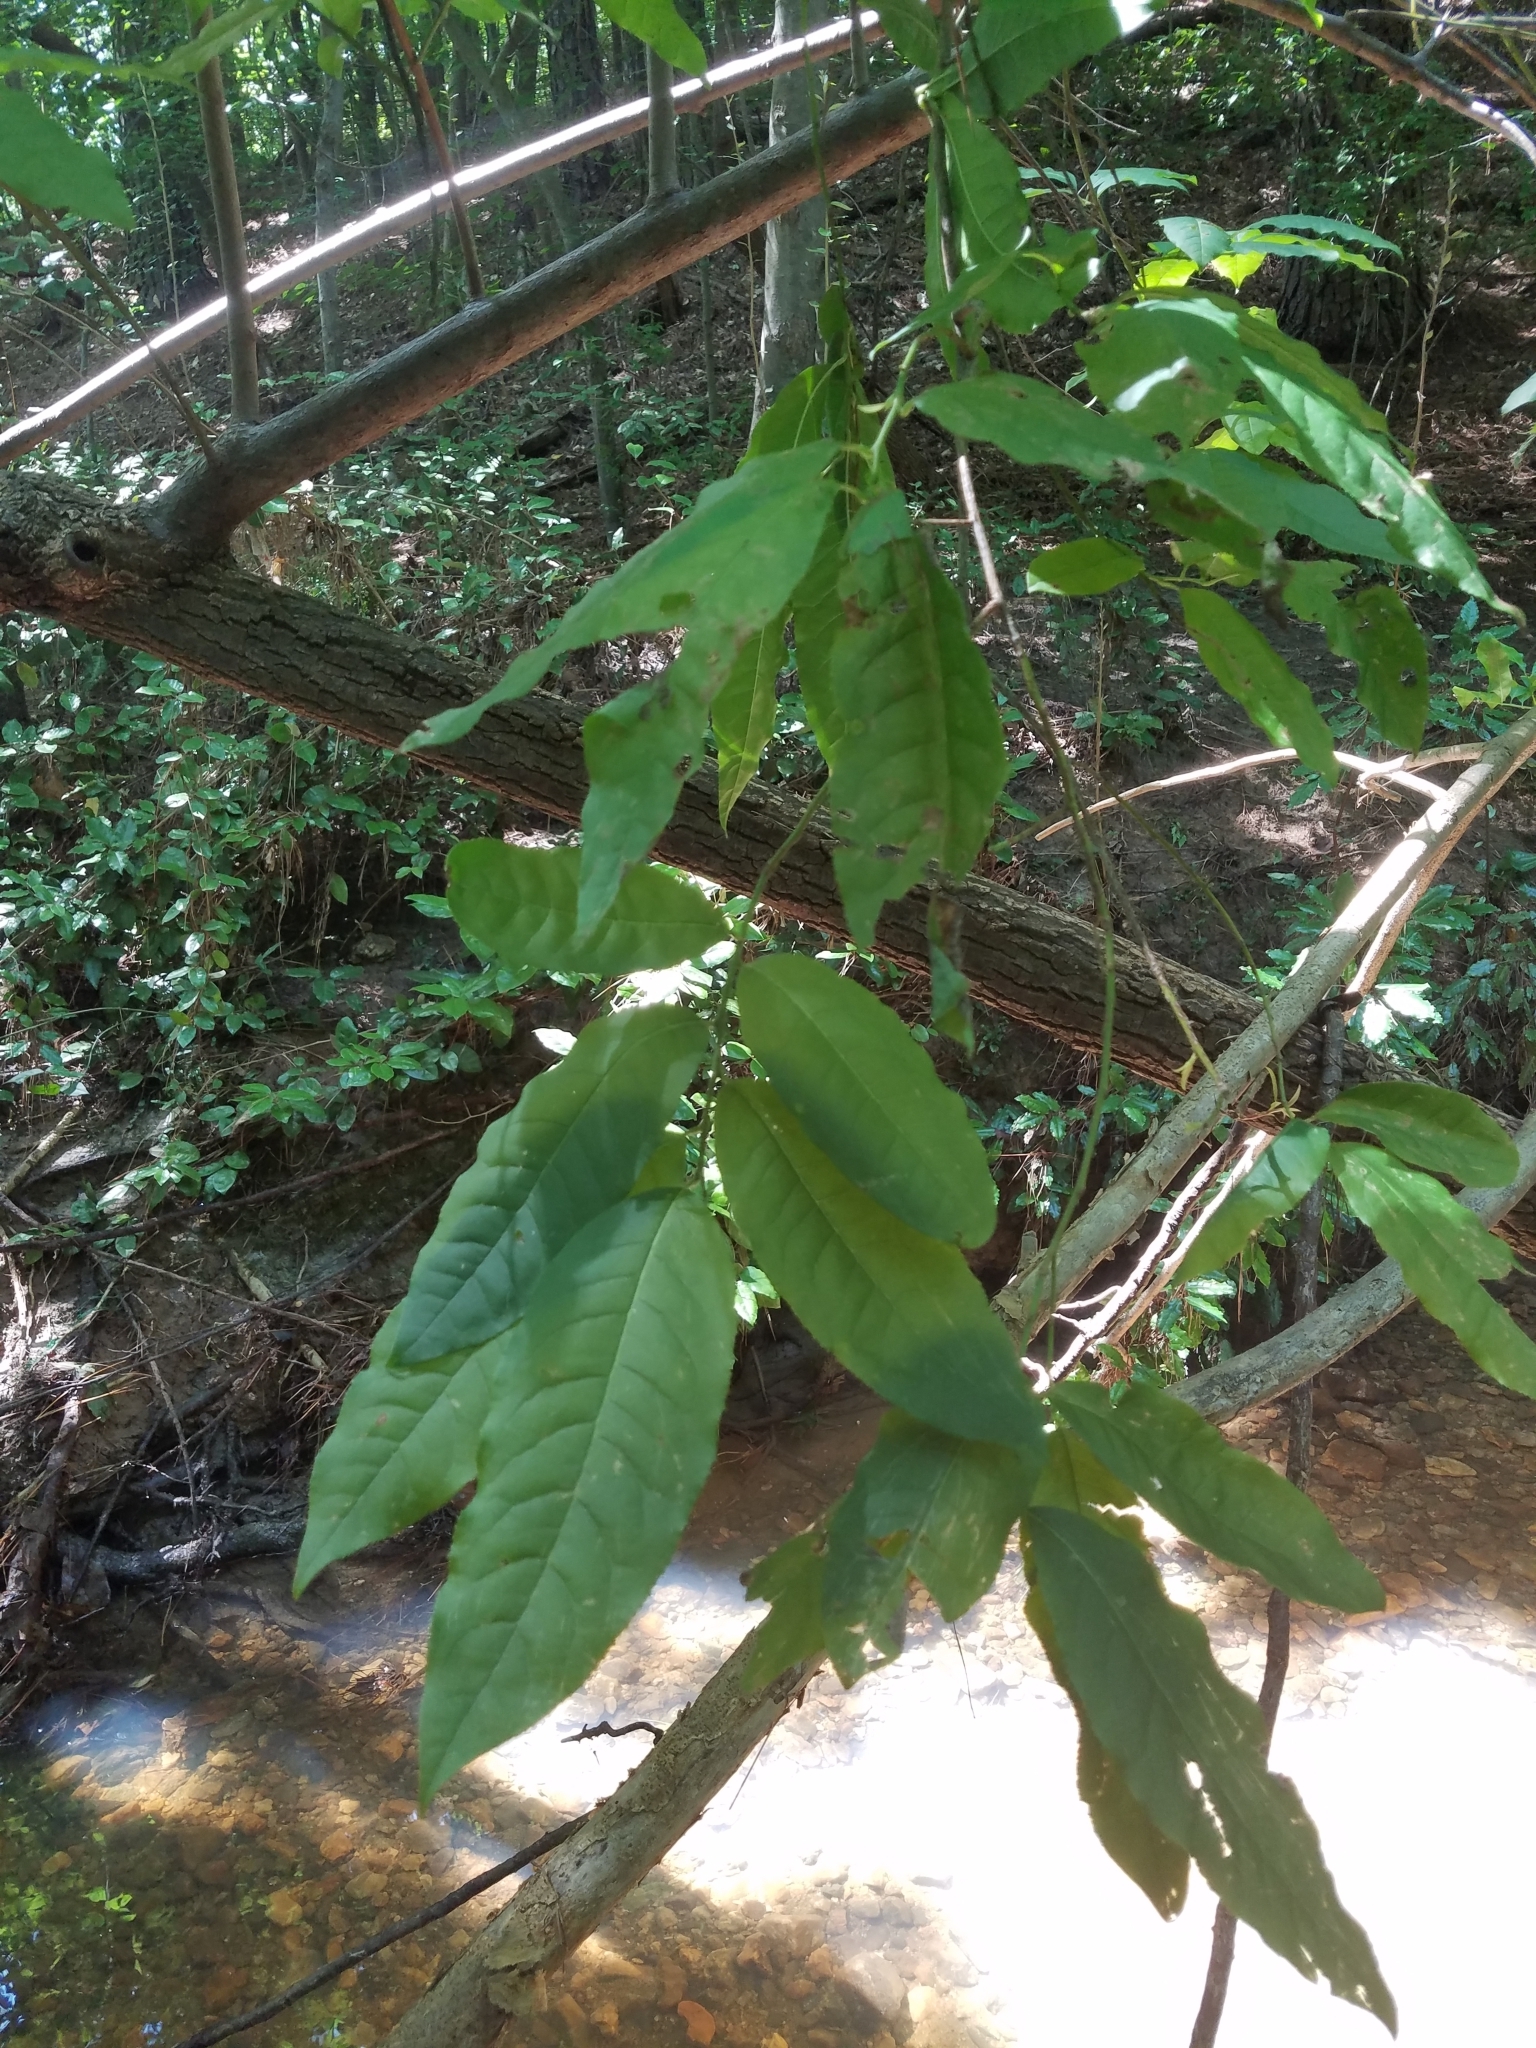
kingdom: Plantae
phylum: Tracheophyta
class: Magnoliopsida
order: Ericales
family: Ericaceae
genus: Oxydendrum
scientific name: Oxydendrum arboreum
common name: Sourwood
